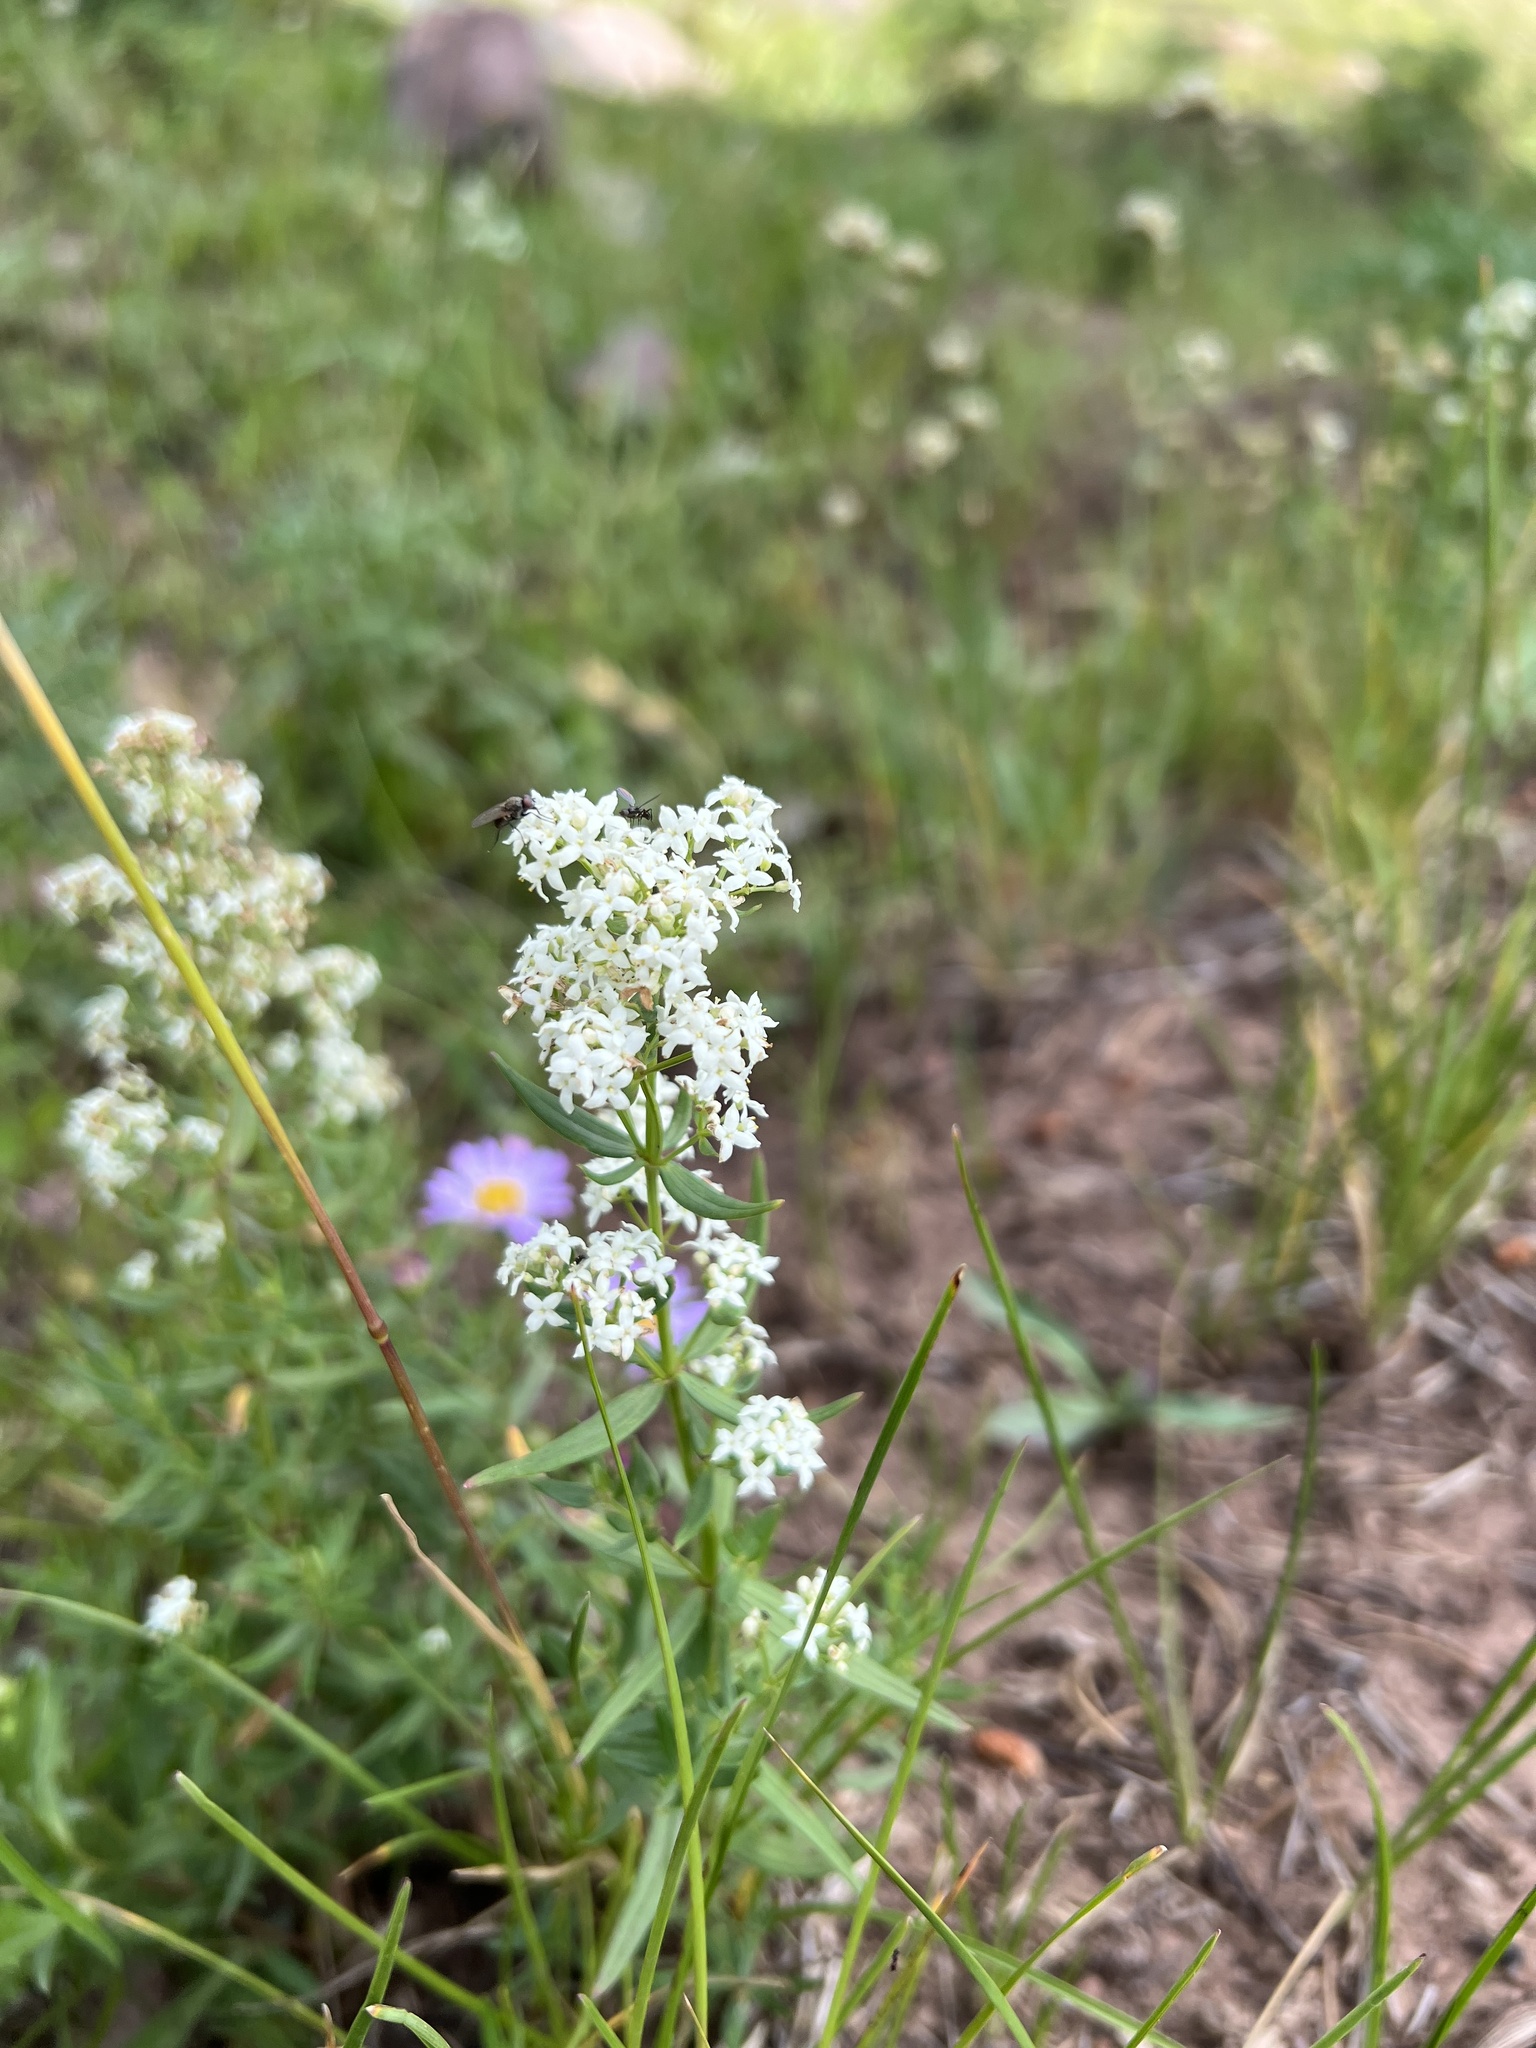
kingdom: Plantae
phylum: Tracheophyta
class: Magnoliopsida
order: Gentianales
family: Rubiaceae
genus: Galium
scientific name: Galium boreale
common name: Northern bedstraw
